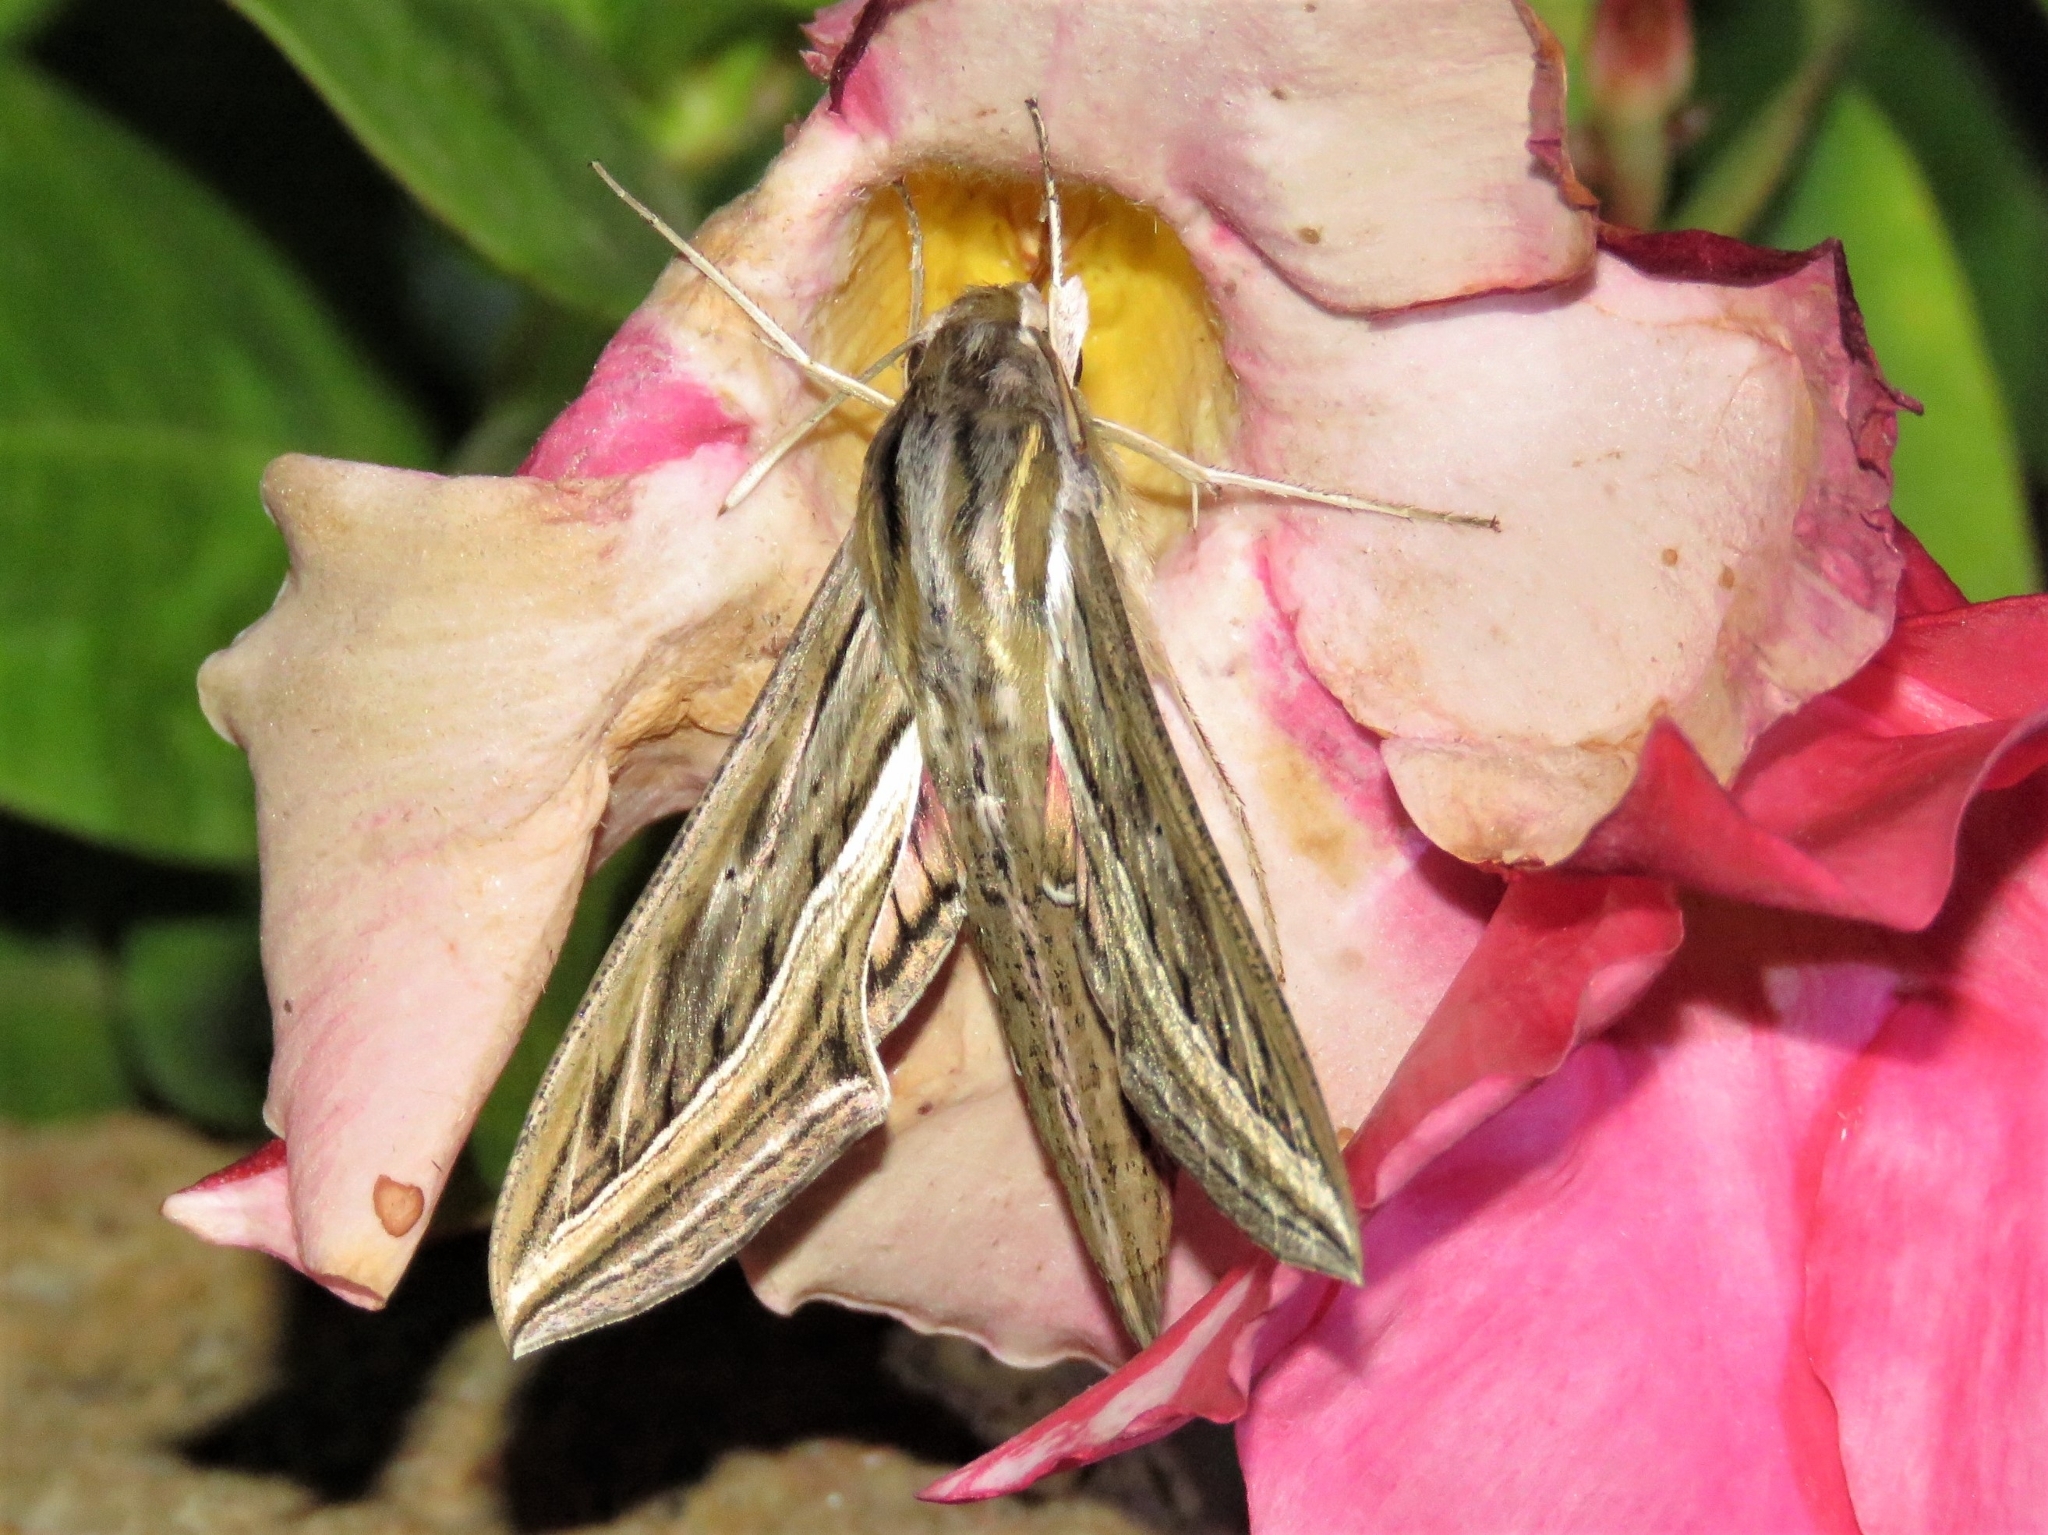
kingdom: Animalia
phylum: Arthropoda
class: Insecta
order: Lepidoptera
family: Sphingidae
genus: Hippotion
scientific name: Hippotion celerio
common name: Silver-striped hawk-moth
